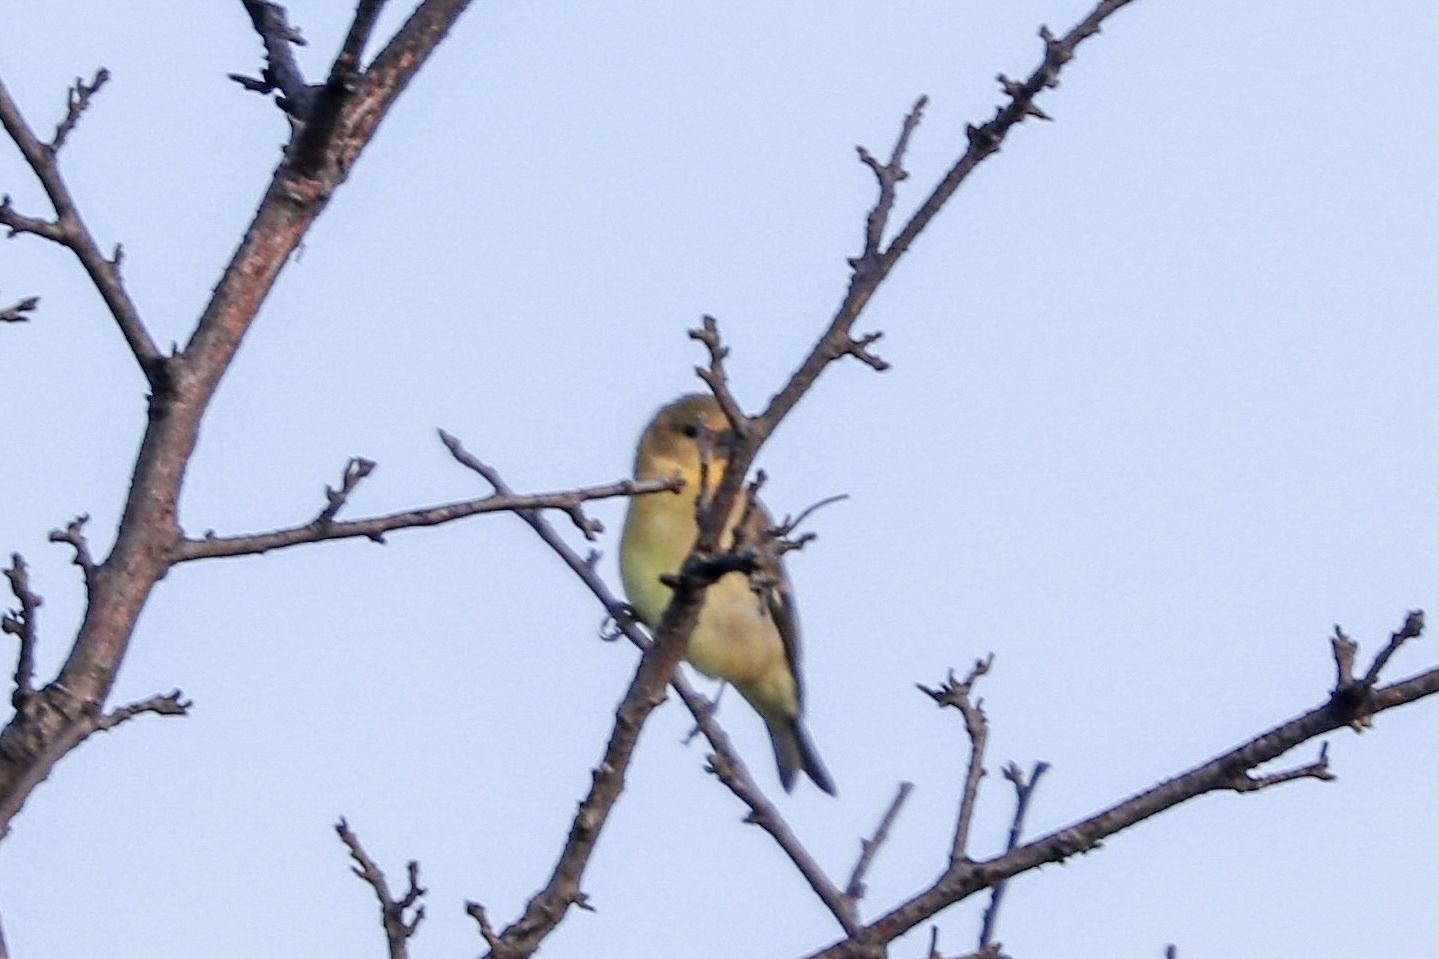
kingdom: Animalia
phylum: Chordata
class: Aves
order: Passeriformes
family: Fringillidae
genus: Spinus
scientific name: Spinus psaltria
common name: Lesser goldfinch
